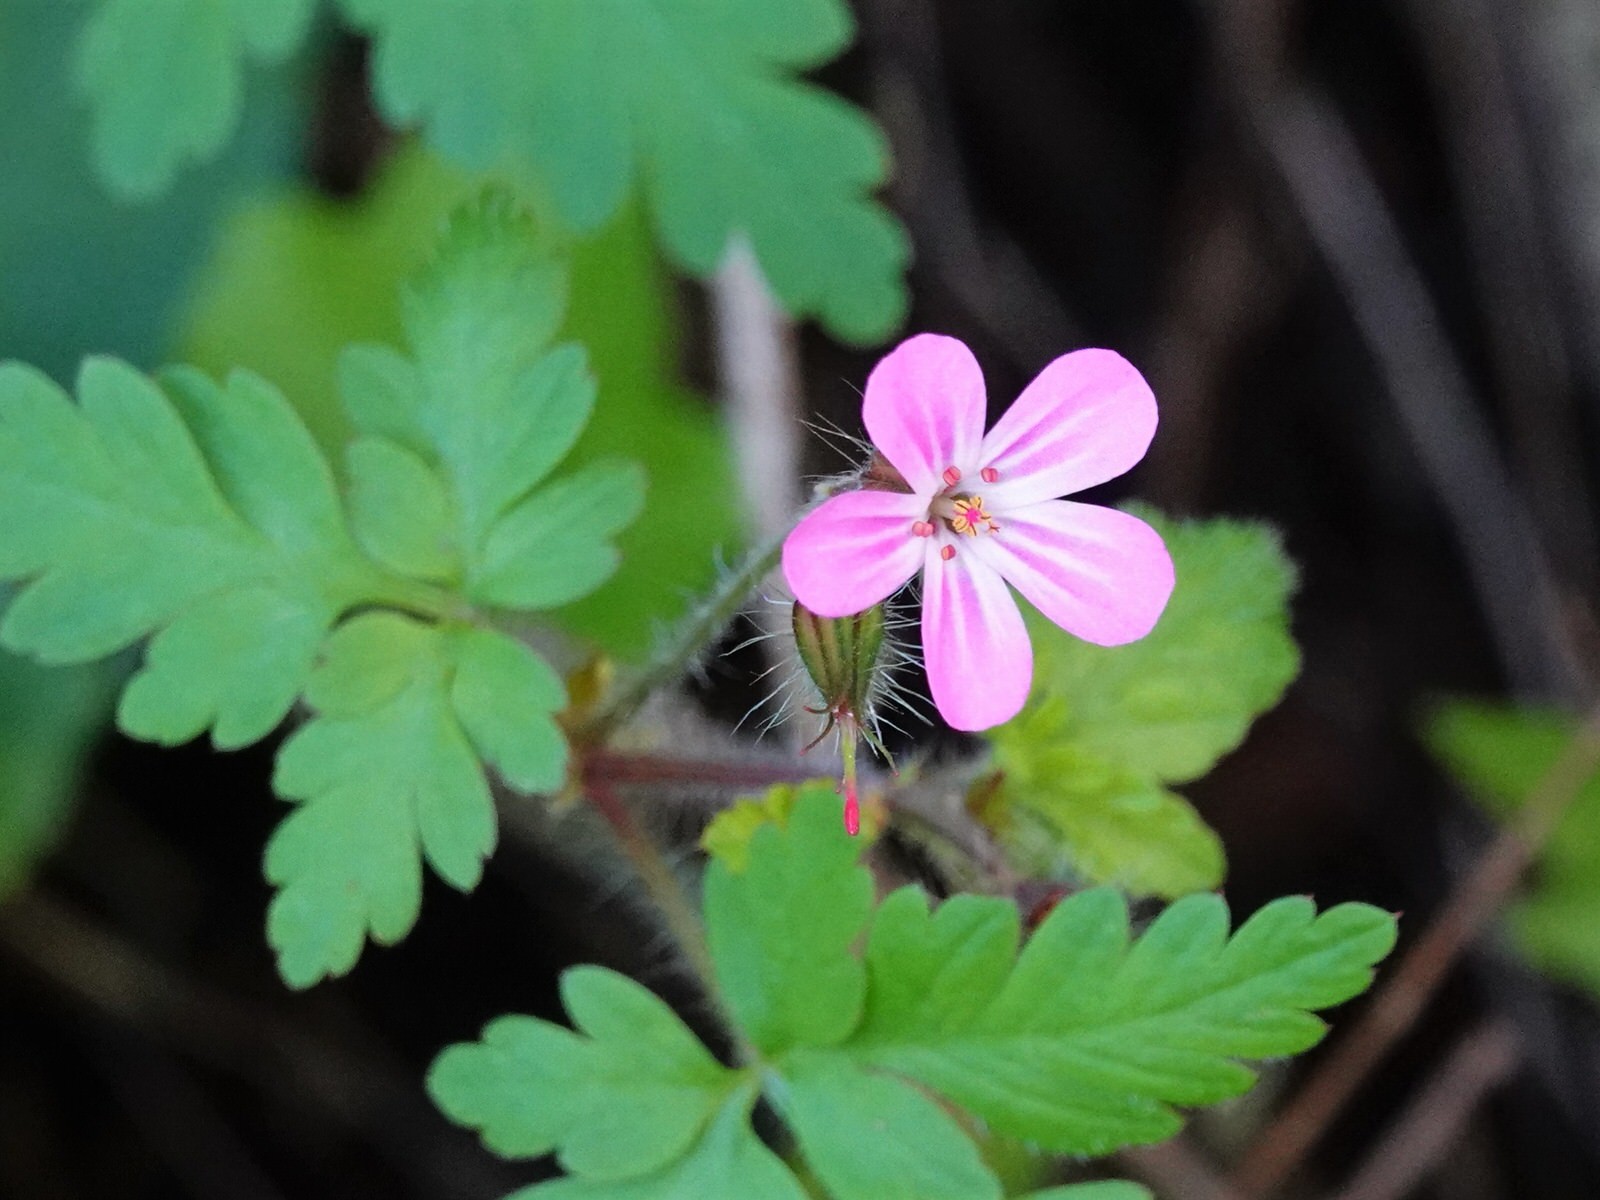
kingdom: Plantae
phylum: Tracheophyta
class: Magnoliopsida
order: Geraniales
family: Geraniaceae
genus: Geranium
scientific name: Geranium robertianum
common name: Herb-robert
